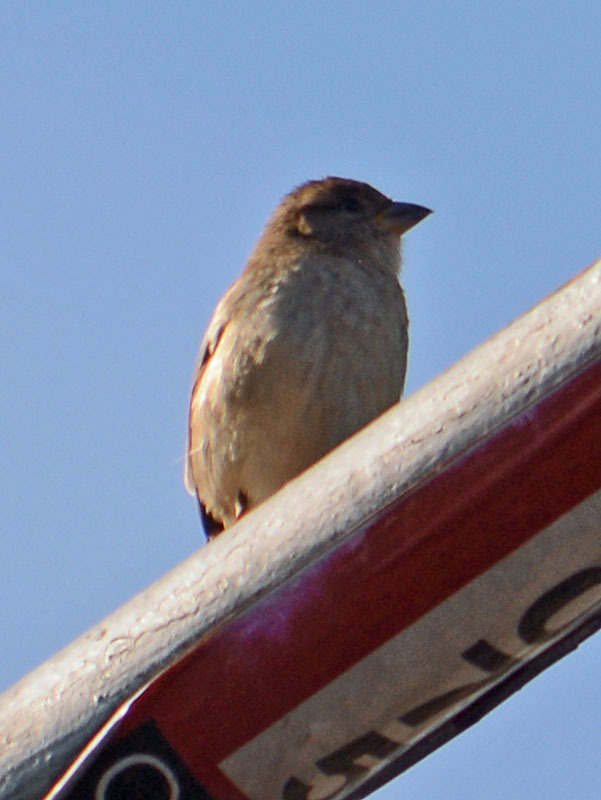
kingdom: Animalia
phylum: Chordata
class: Aves
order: Passeriformes
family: Passeridae
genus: Passer
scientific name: Passer domesticus
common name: House sparrow
